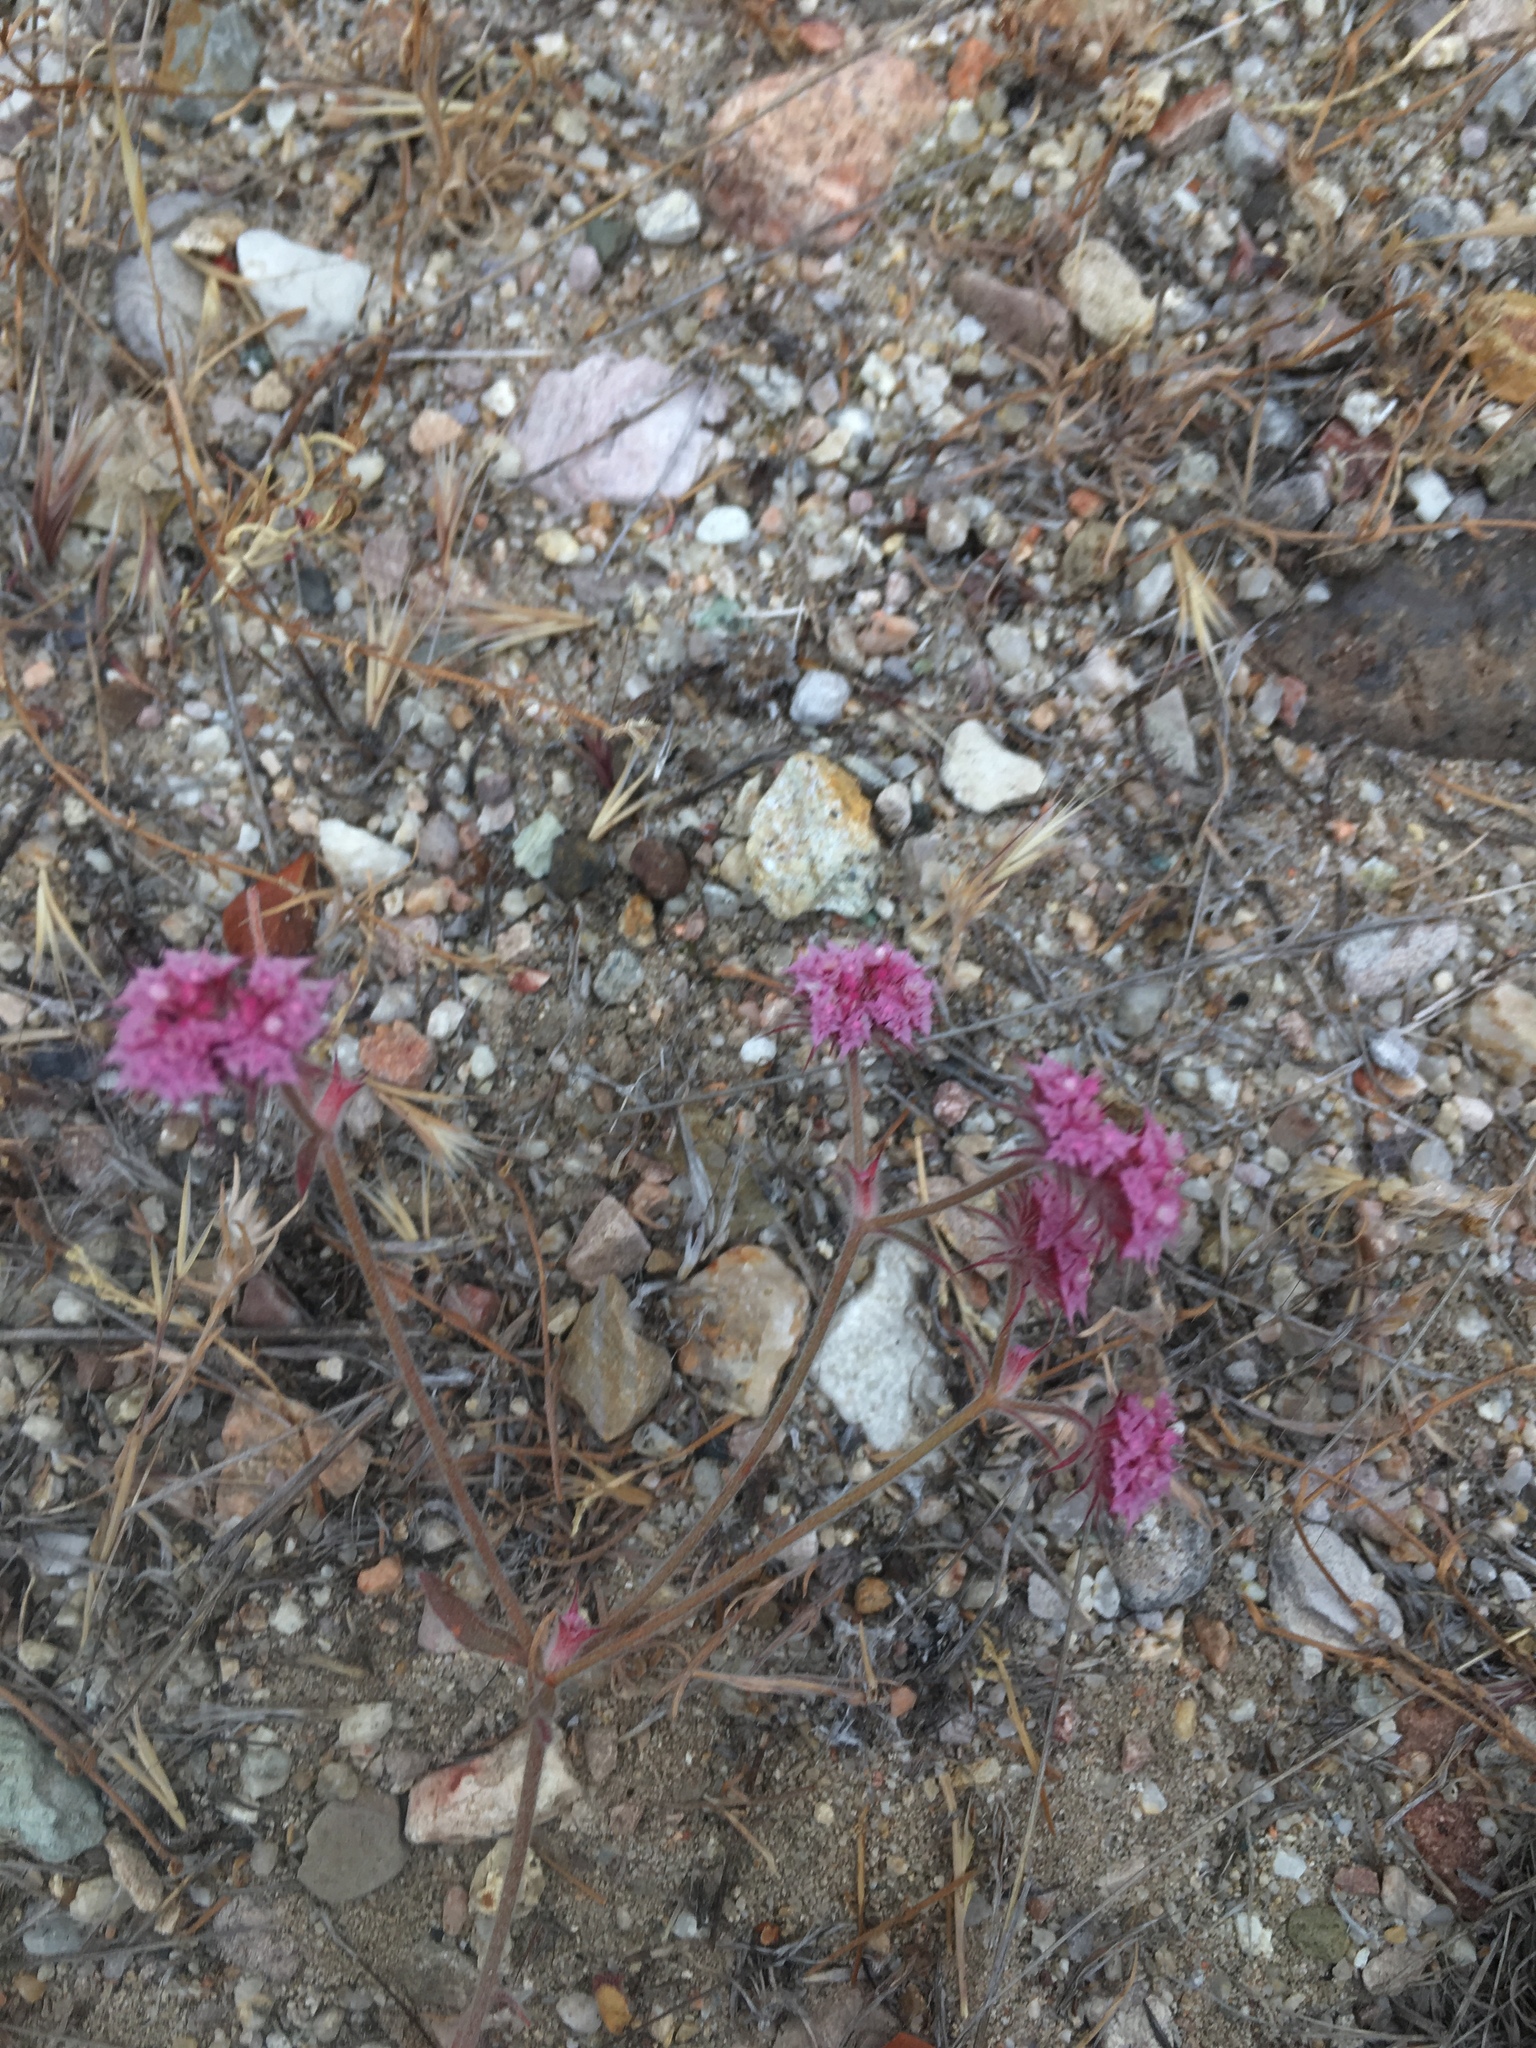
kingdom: Plantae
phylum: Tracheophyta
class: Magnoliopsida
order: Caryophyllales
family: Polygonaceae
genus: Chorizanthe
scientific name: Chorizanthe douglasii
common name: Douglas's spineflower
